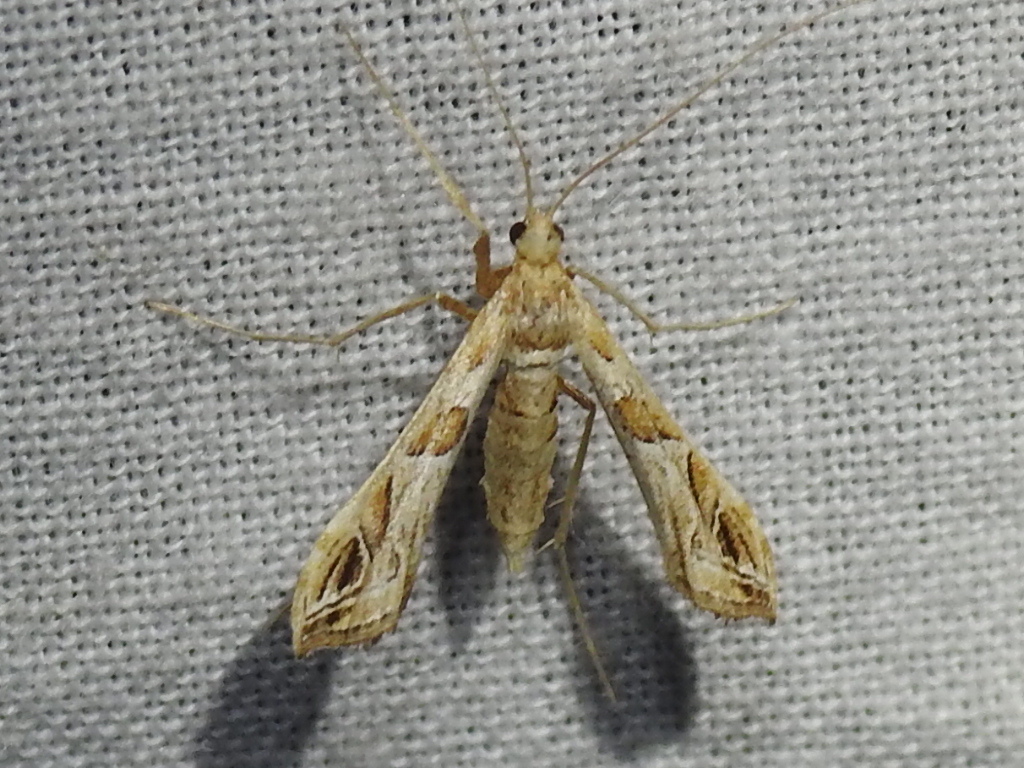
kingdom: Animalia
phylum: Arthropoda
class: Insecta
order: Lepidoptera
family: Crambidae
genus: Lineodes
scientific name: Lineodes interrupta
